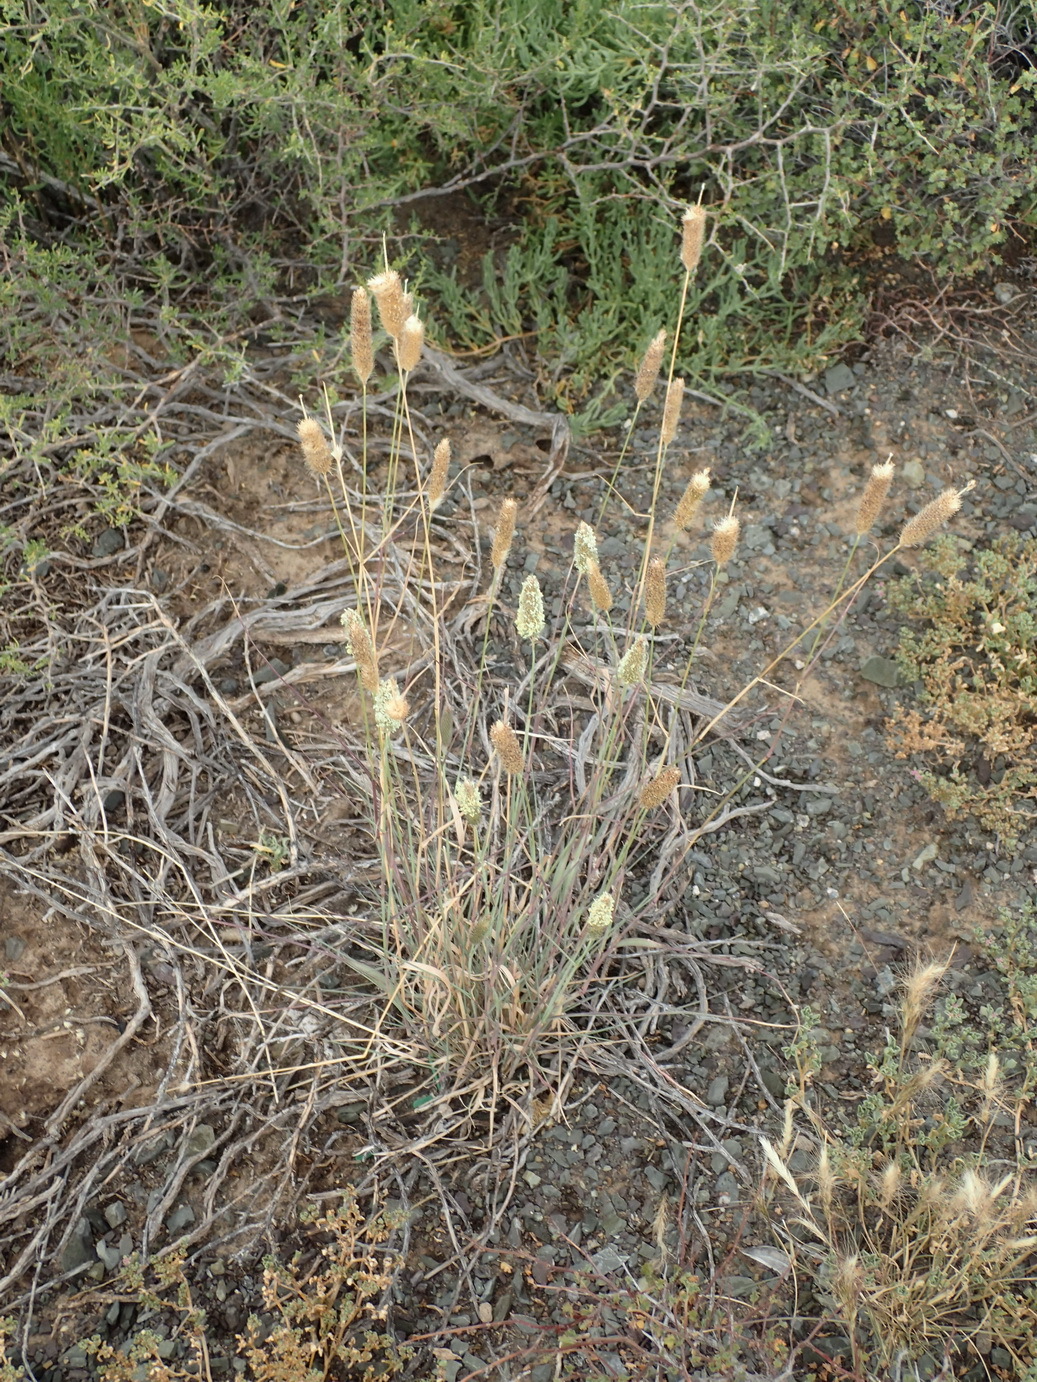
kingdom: Plantae
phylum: Tracheophyta
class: Liliopsida
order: Poales
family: Poaceae
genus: Fingerhuthia
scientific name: Fingerhuthia africana
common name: Zulu fescue
